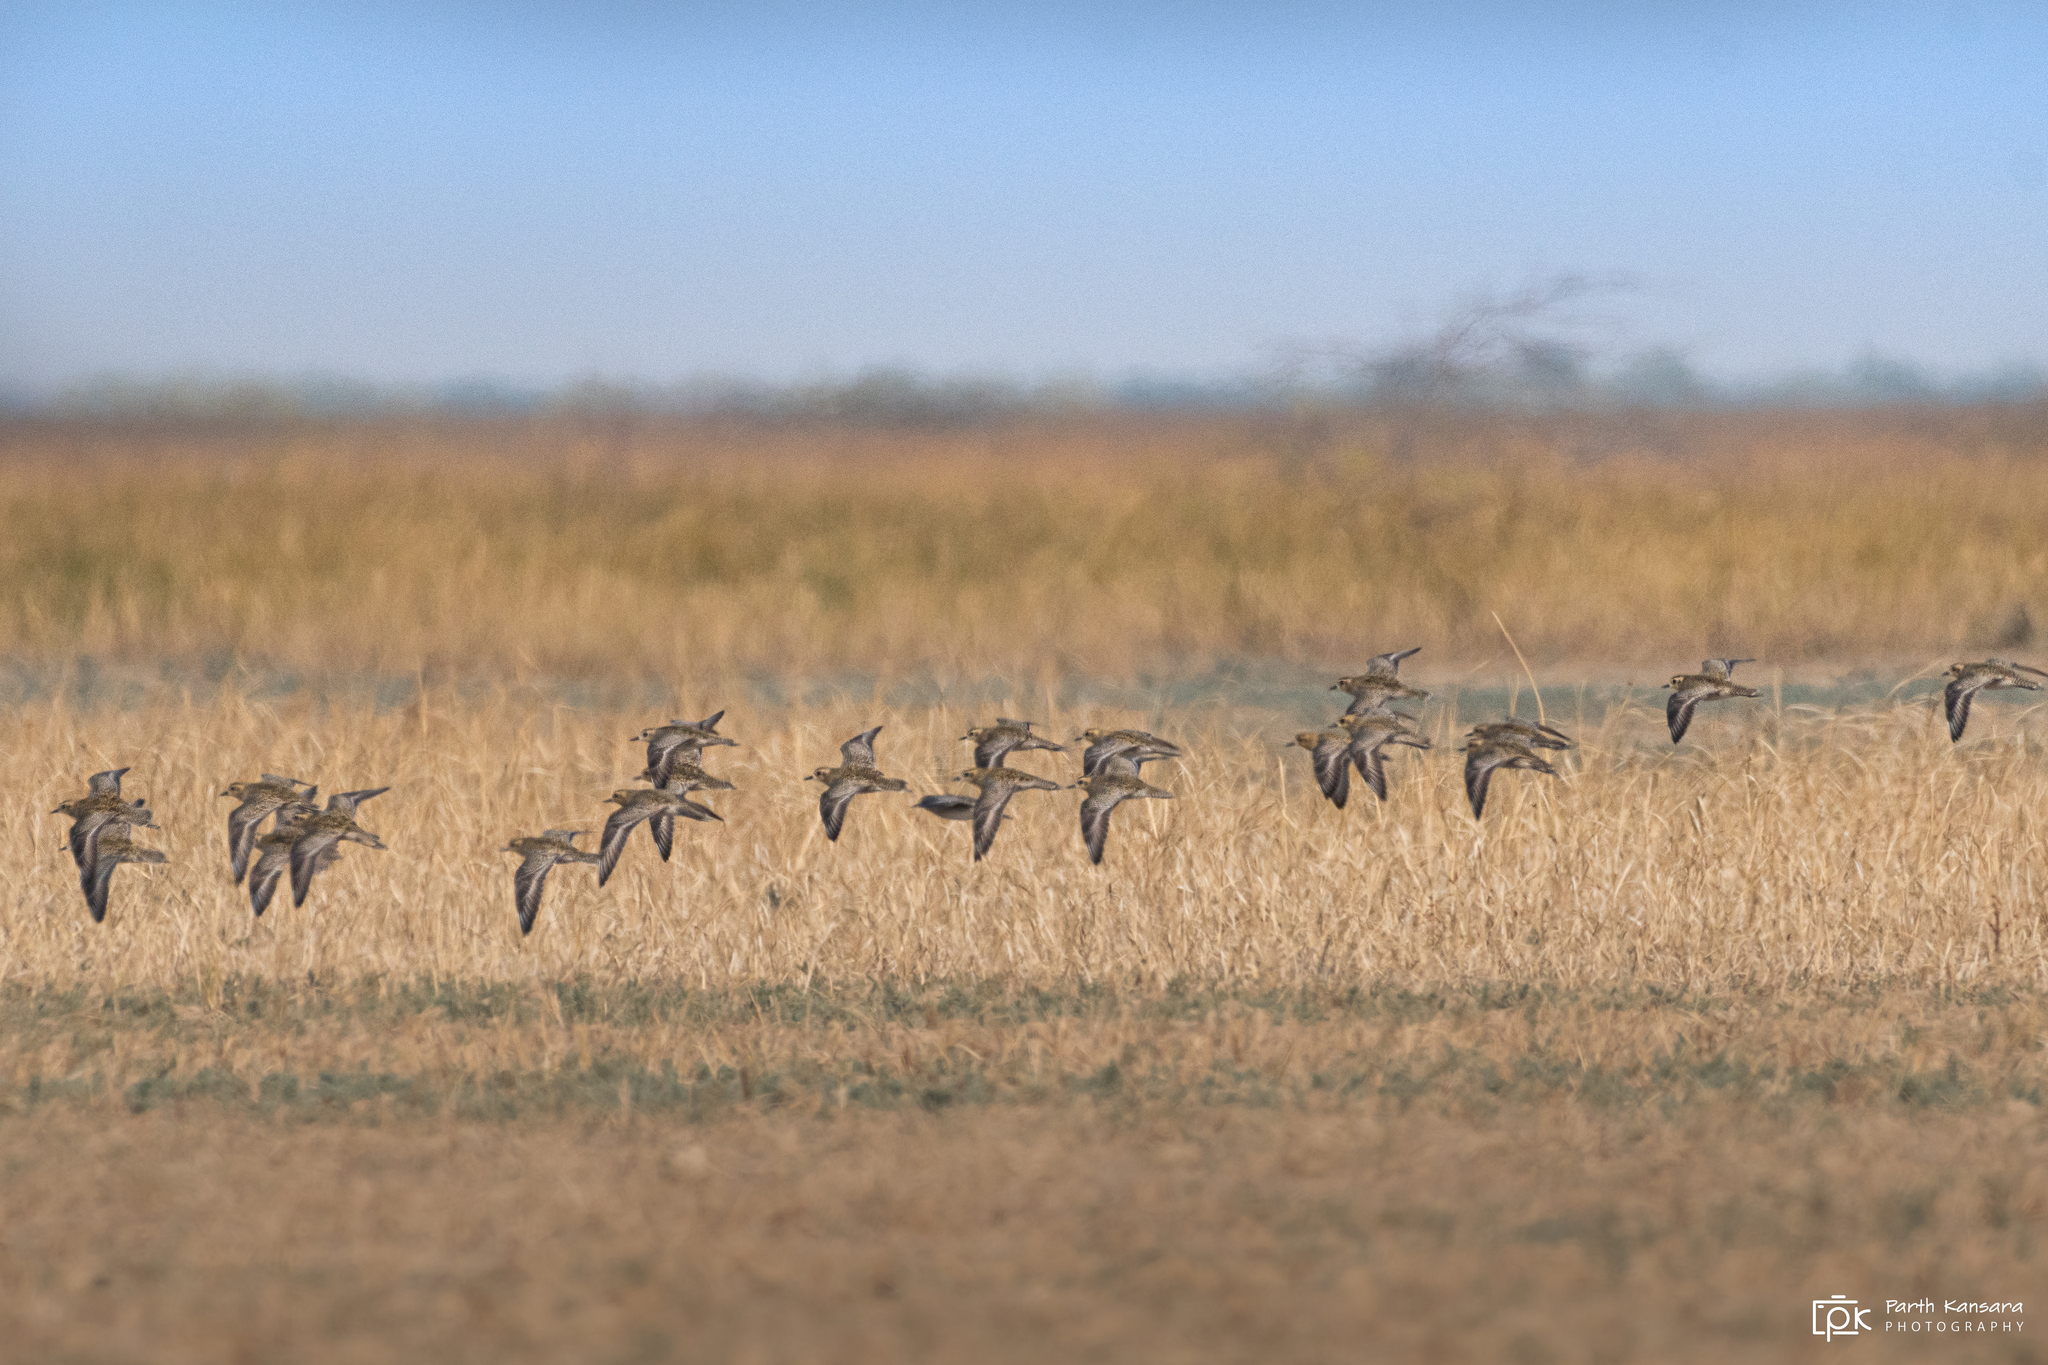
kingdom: Animalia
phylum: Chordata
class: Aves
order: Charadriiformes
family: Charadriidae
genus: Pluvialis
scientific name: Pluvialis fulva
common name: Pacific golden plover
